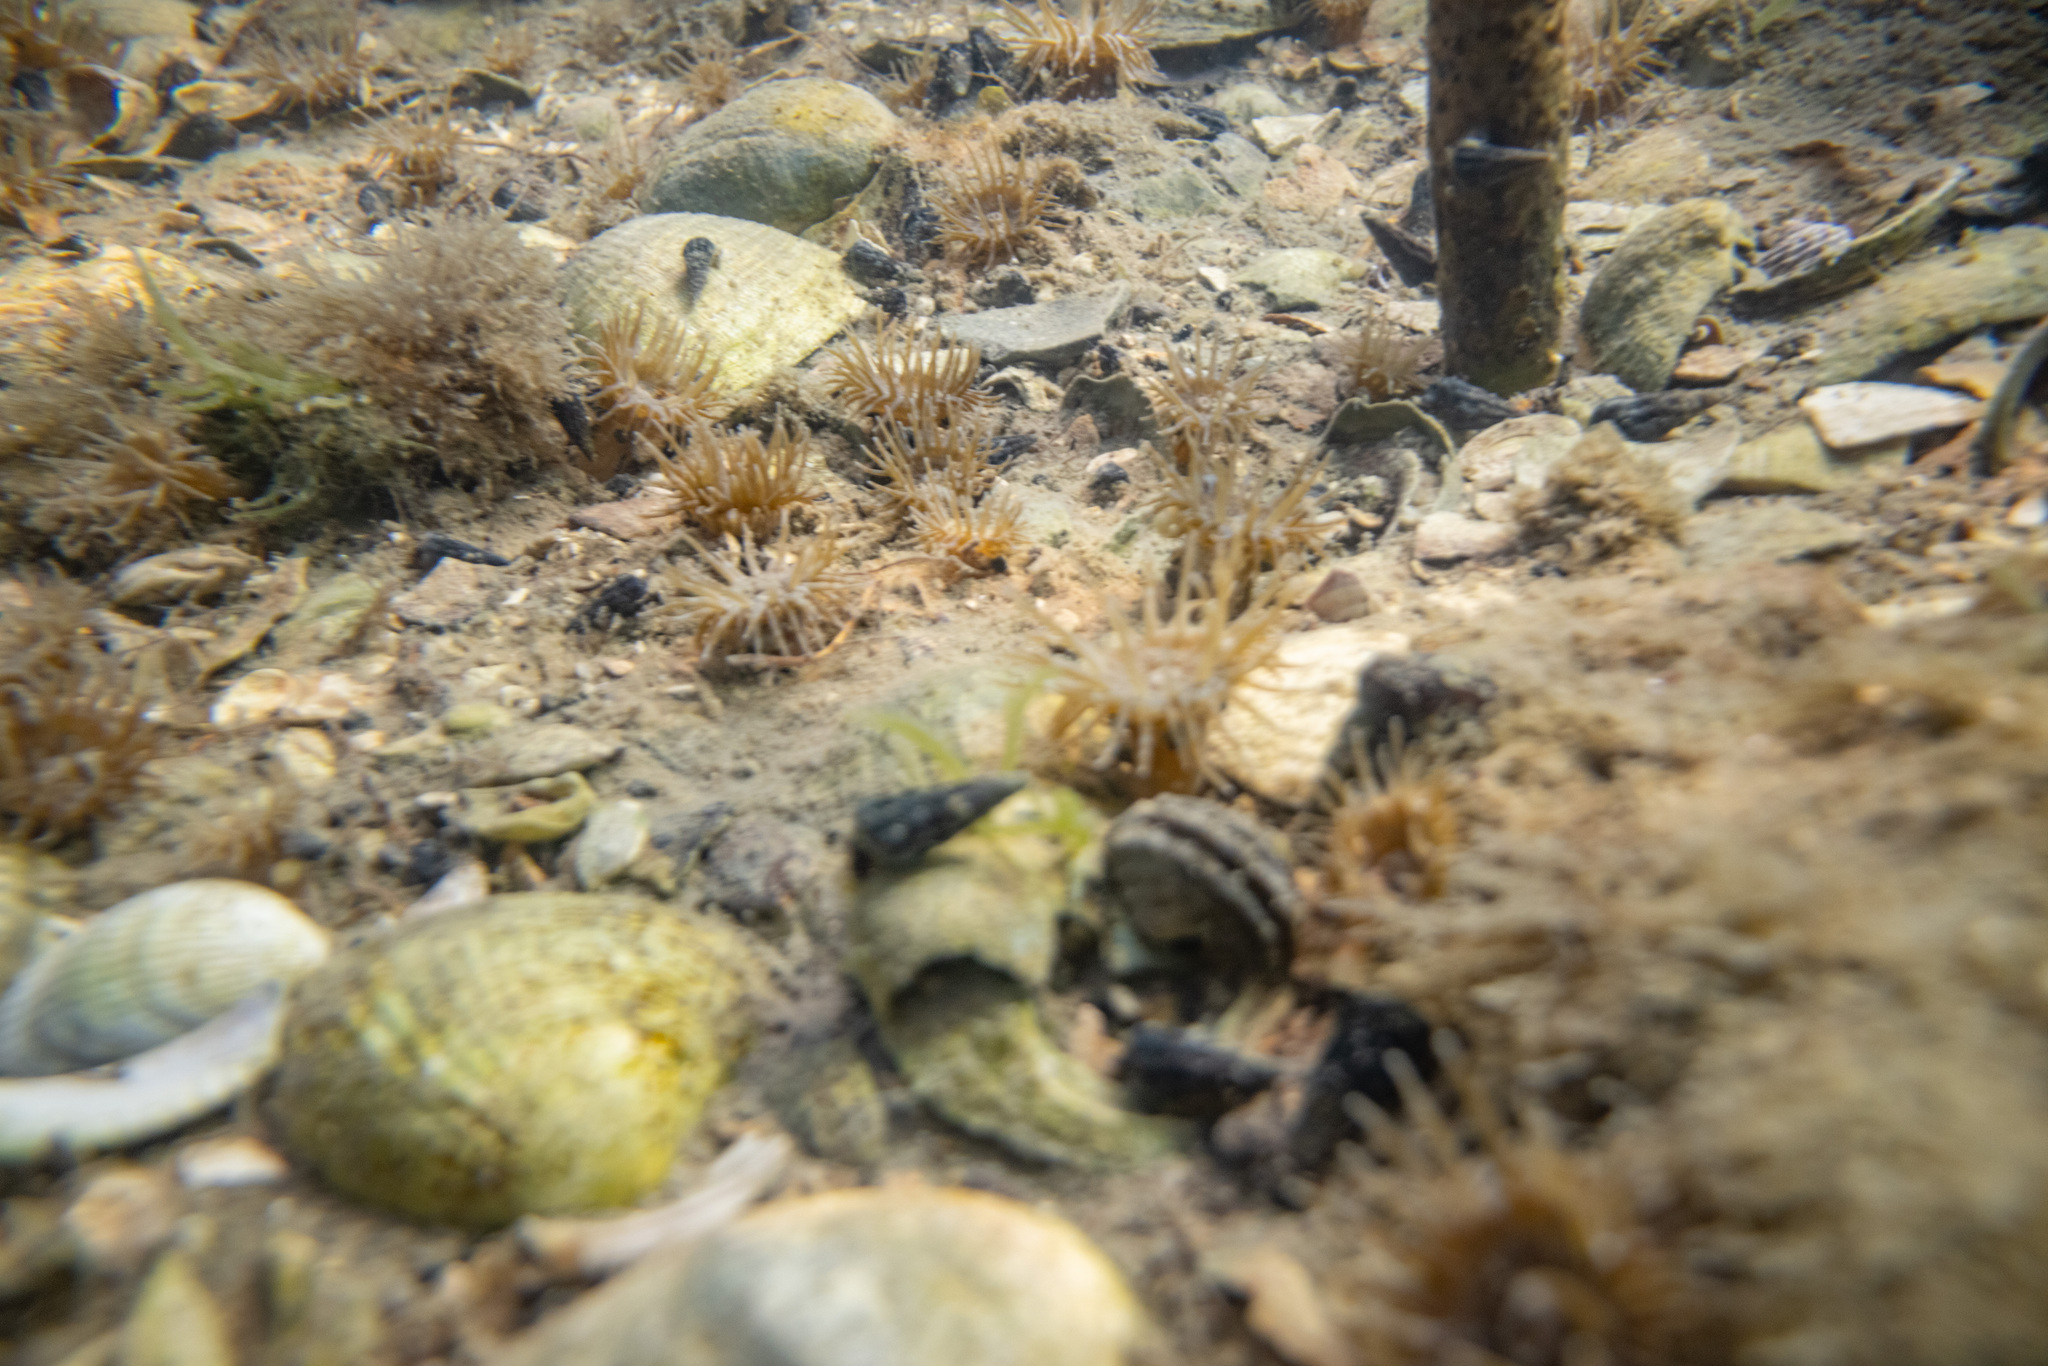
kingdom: Animalia
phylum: Cnidaria
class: Anthozoa
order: Actiniaria
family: Actiniidae
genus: Anthopleura
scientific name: Anthopleura hermaphroditica
